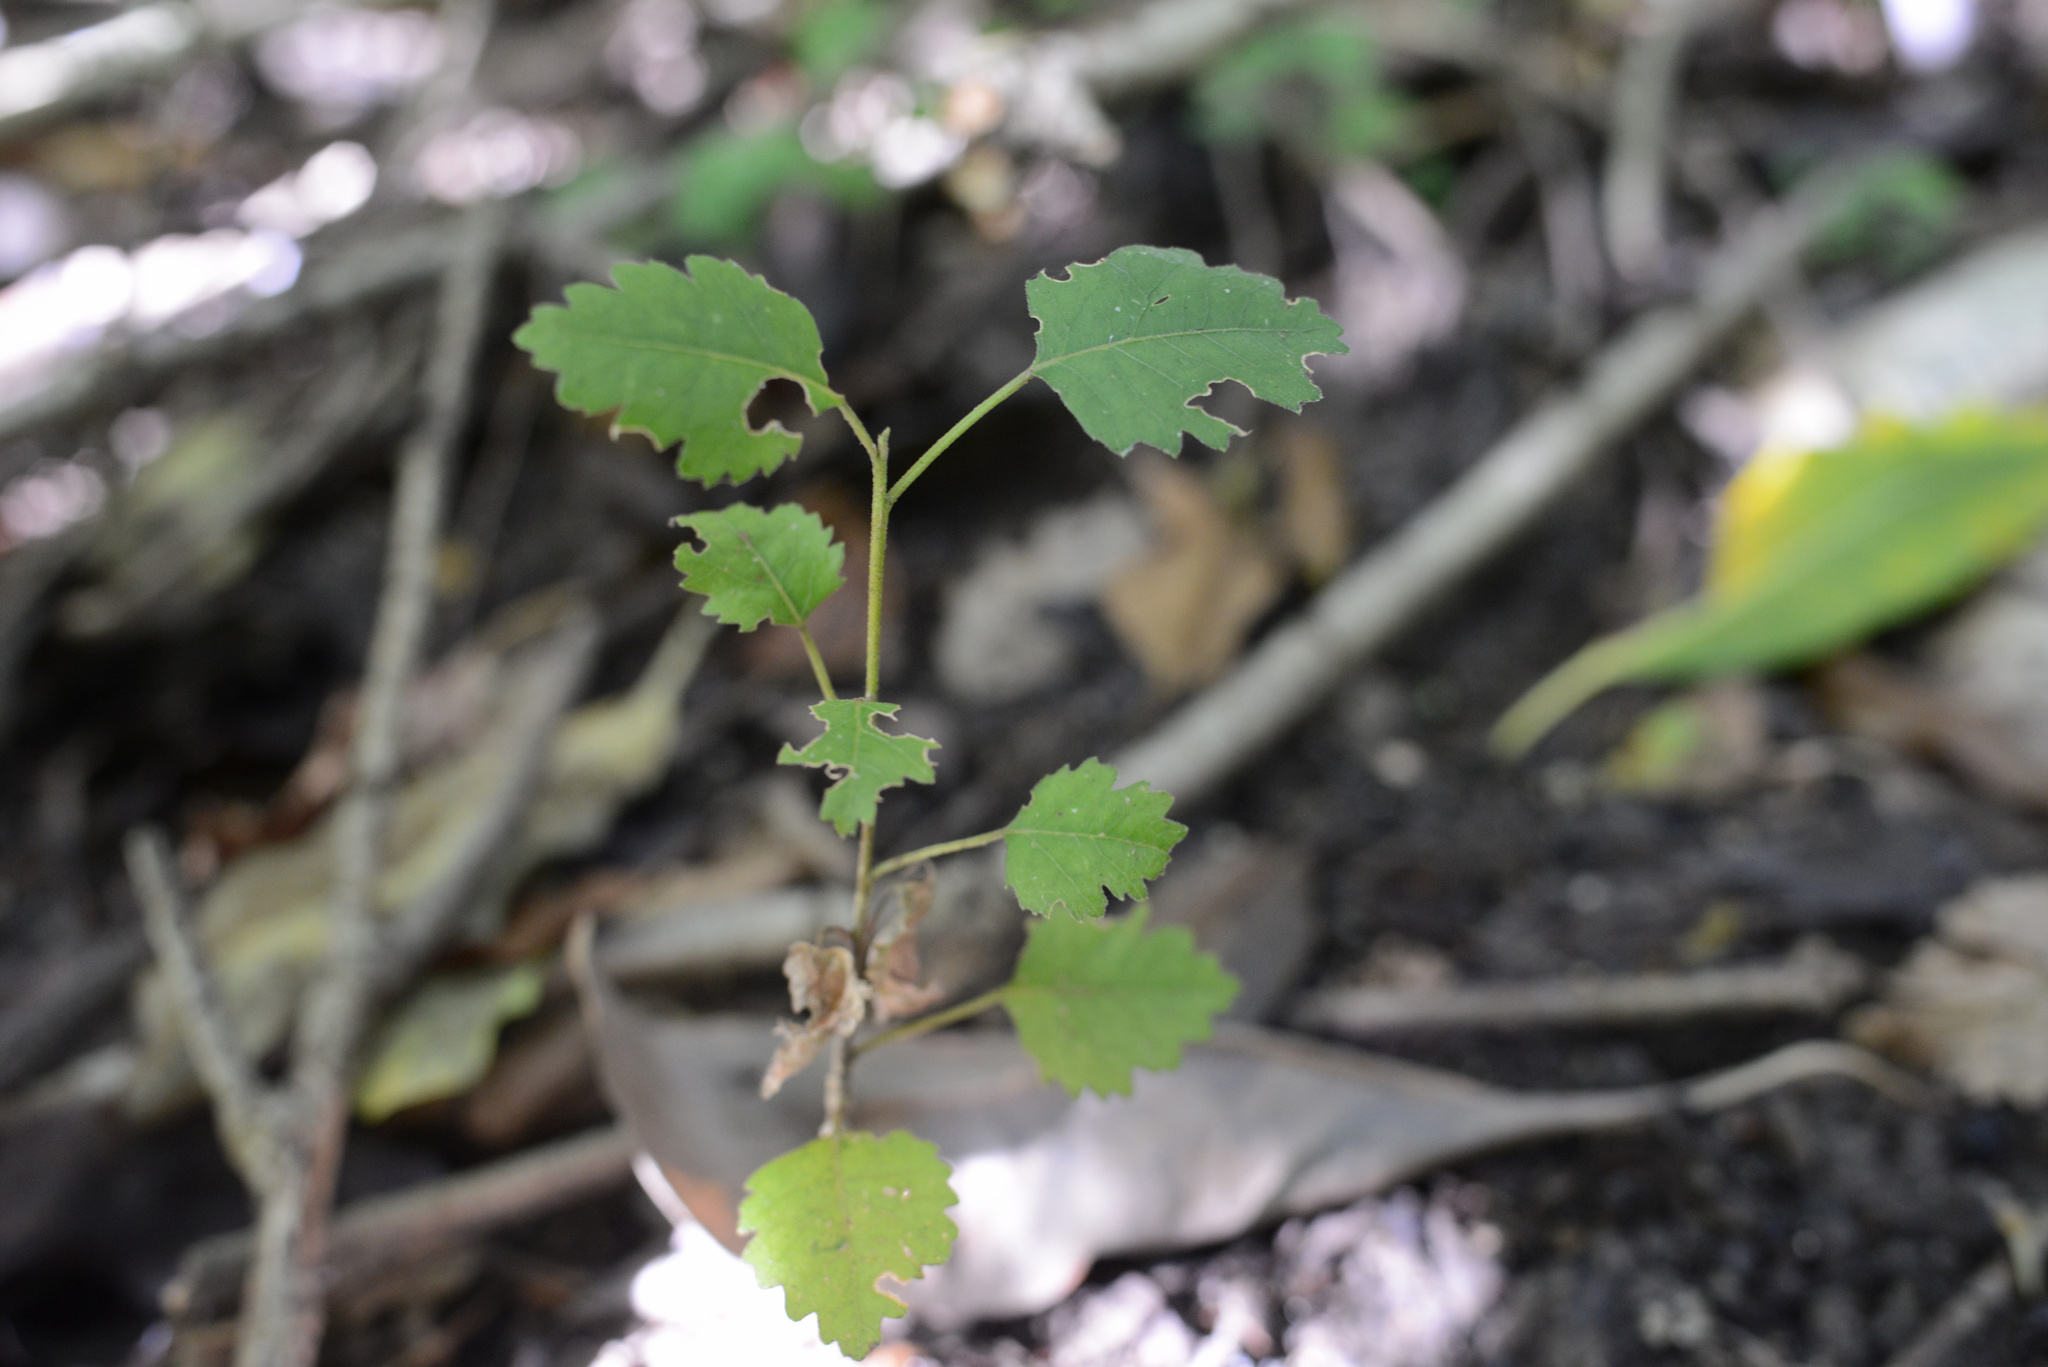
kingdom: Plantae
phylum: Tracheophyta
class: Magnoliopsida
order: Malvales
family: Malvaceae
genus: Plagianthus
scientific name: Plagianthus regius
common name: Manatu
